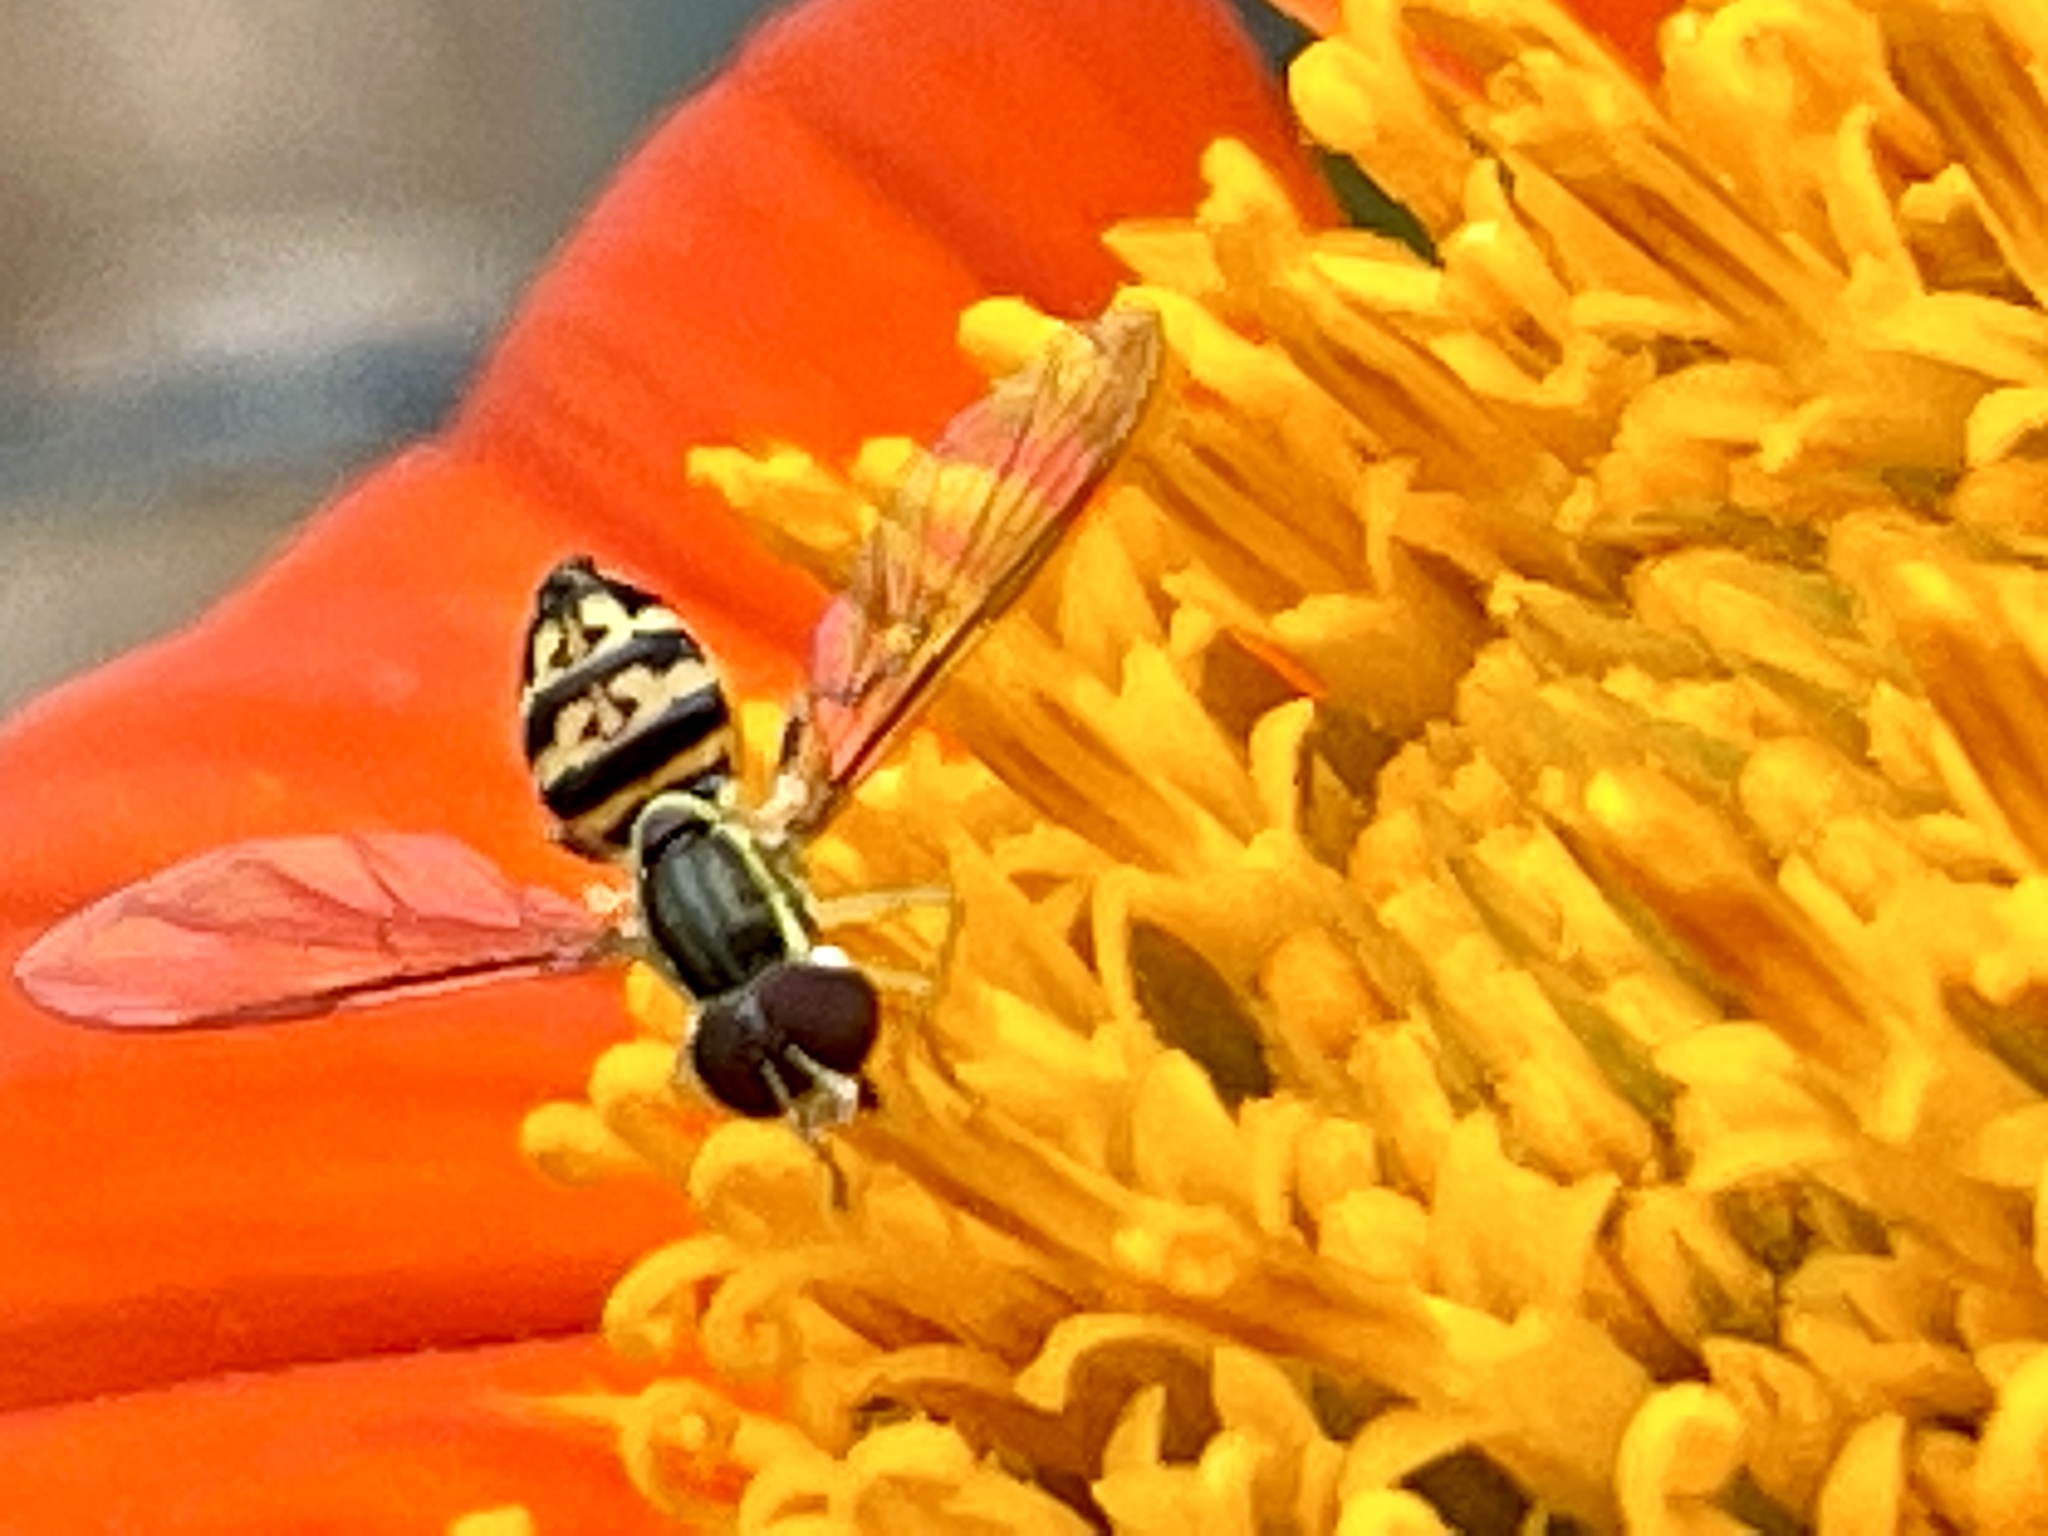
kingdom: Animalia
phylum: Arthropoda
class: Insecta
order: Diptera
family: Syrphidae
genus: Toxomerus
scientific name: Toxomerus geminatus
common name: Eastern calligrapher
